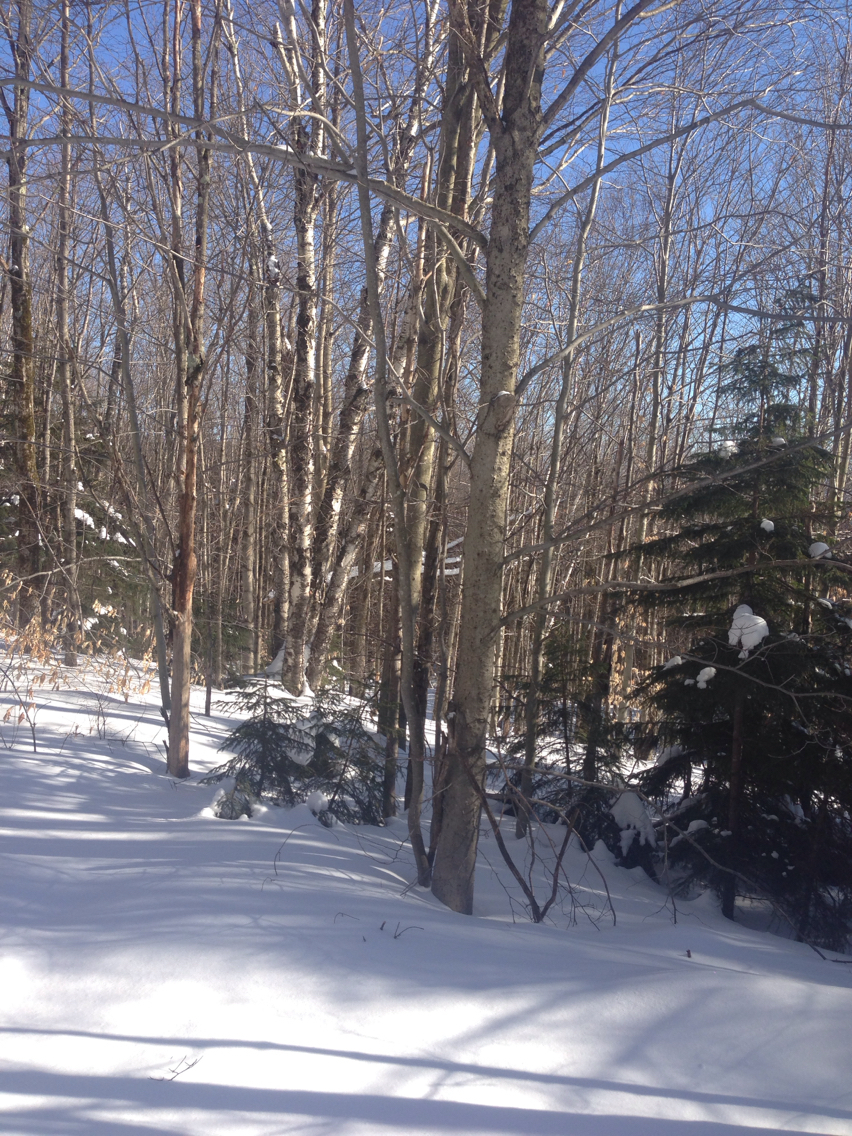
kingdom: Plantae
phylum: Tracheophyta
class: Magnoliopsida
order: Fagales
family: Fagaceae
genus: Fagus
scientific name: Fagus grandifolia
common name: American beech
